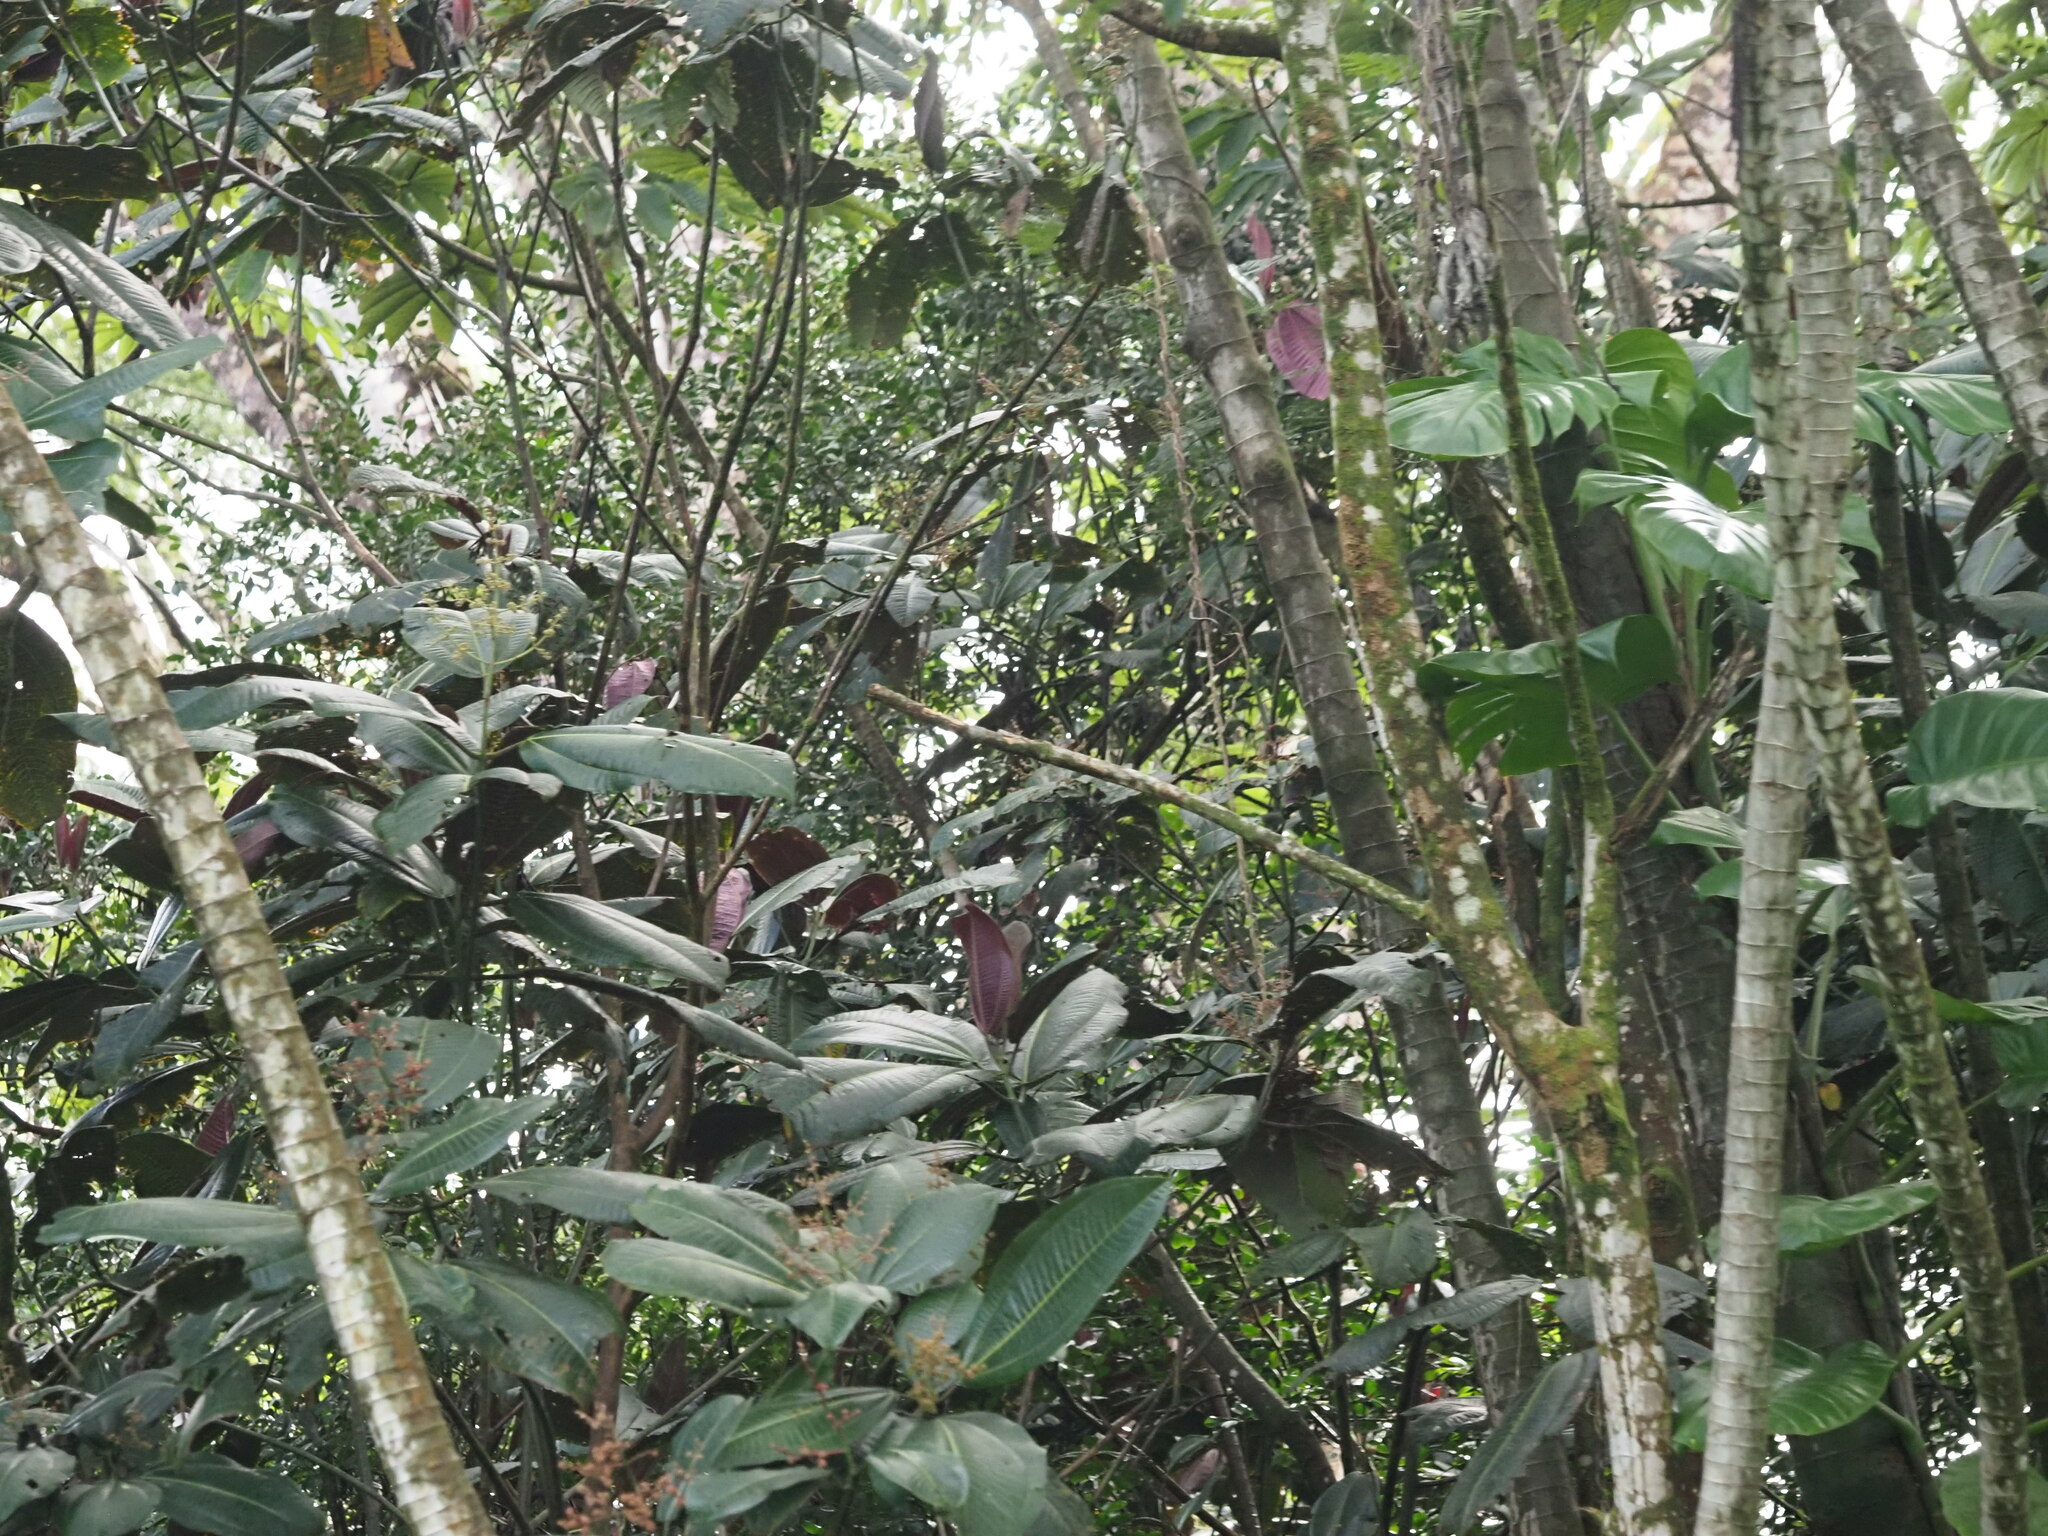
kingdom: Plantae
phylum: Tracheophyta
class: Magnoliopsida
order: Myrtales
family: Melastomataceae
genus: Miconia
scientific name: Miconia calvescens
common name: Purple plague
